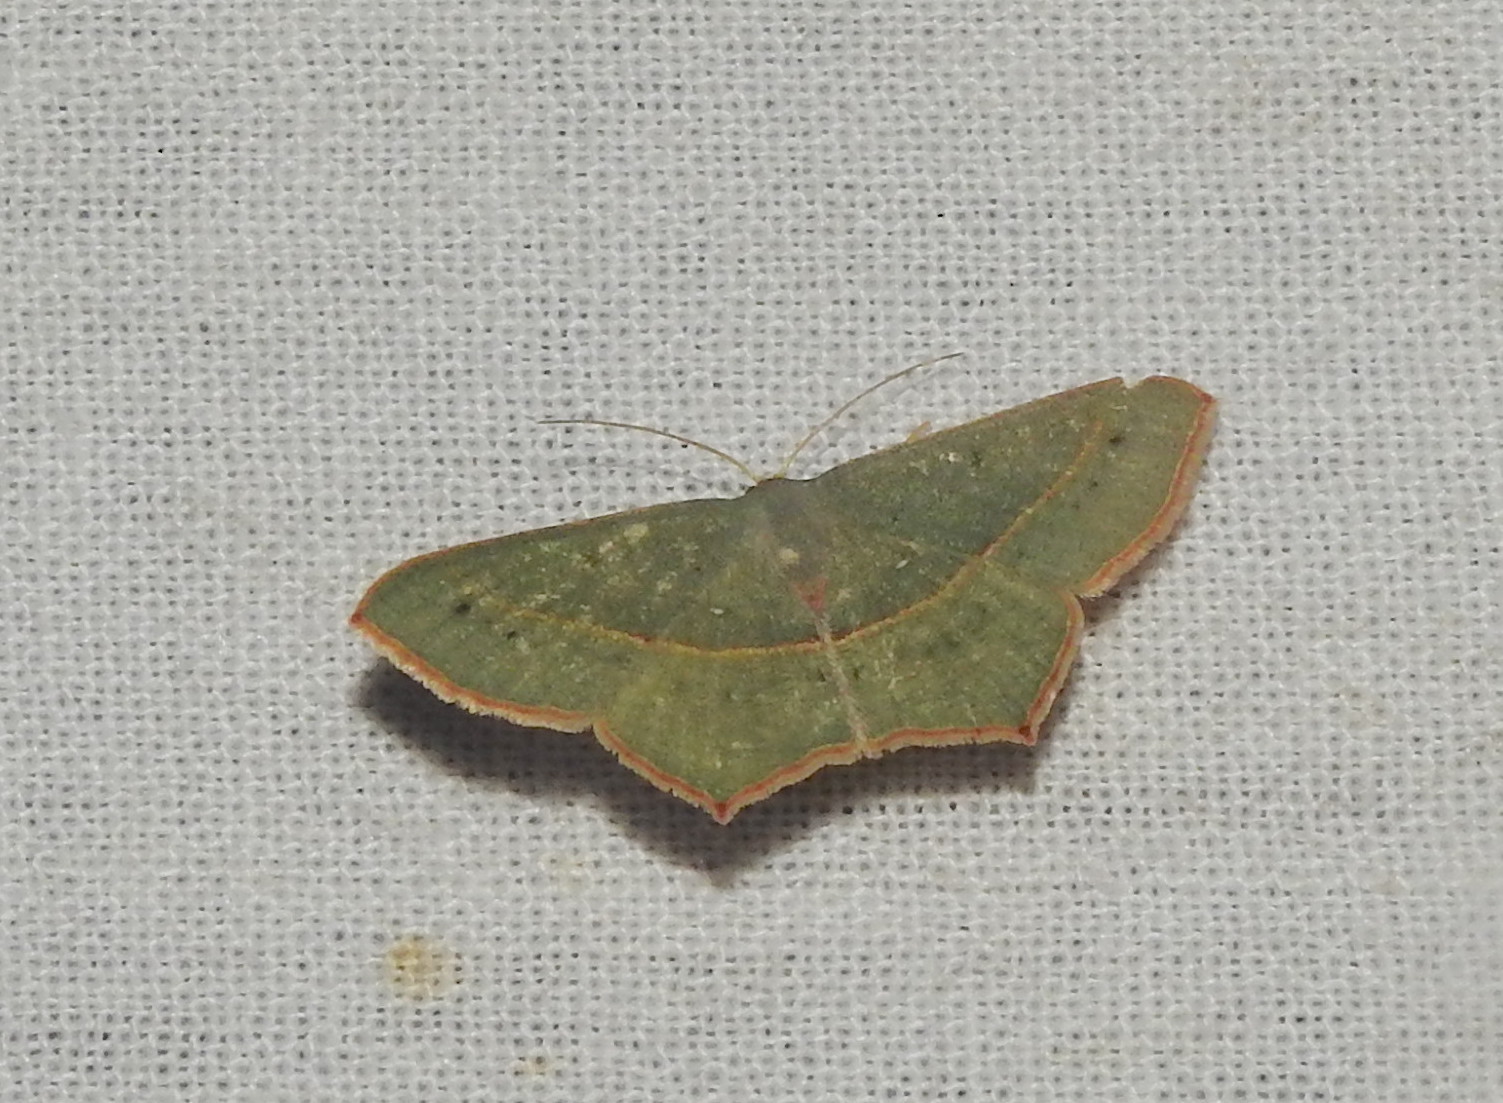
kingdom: Animalia
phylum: Arthropoda
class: Insecta
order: Lepidoptera
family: Geometridae
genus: Traminda
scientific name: Traminda mundissima
